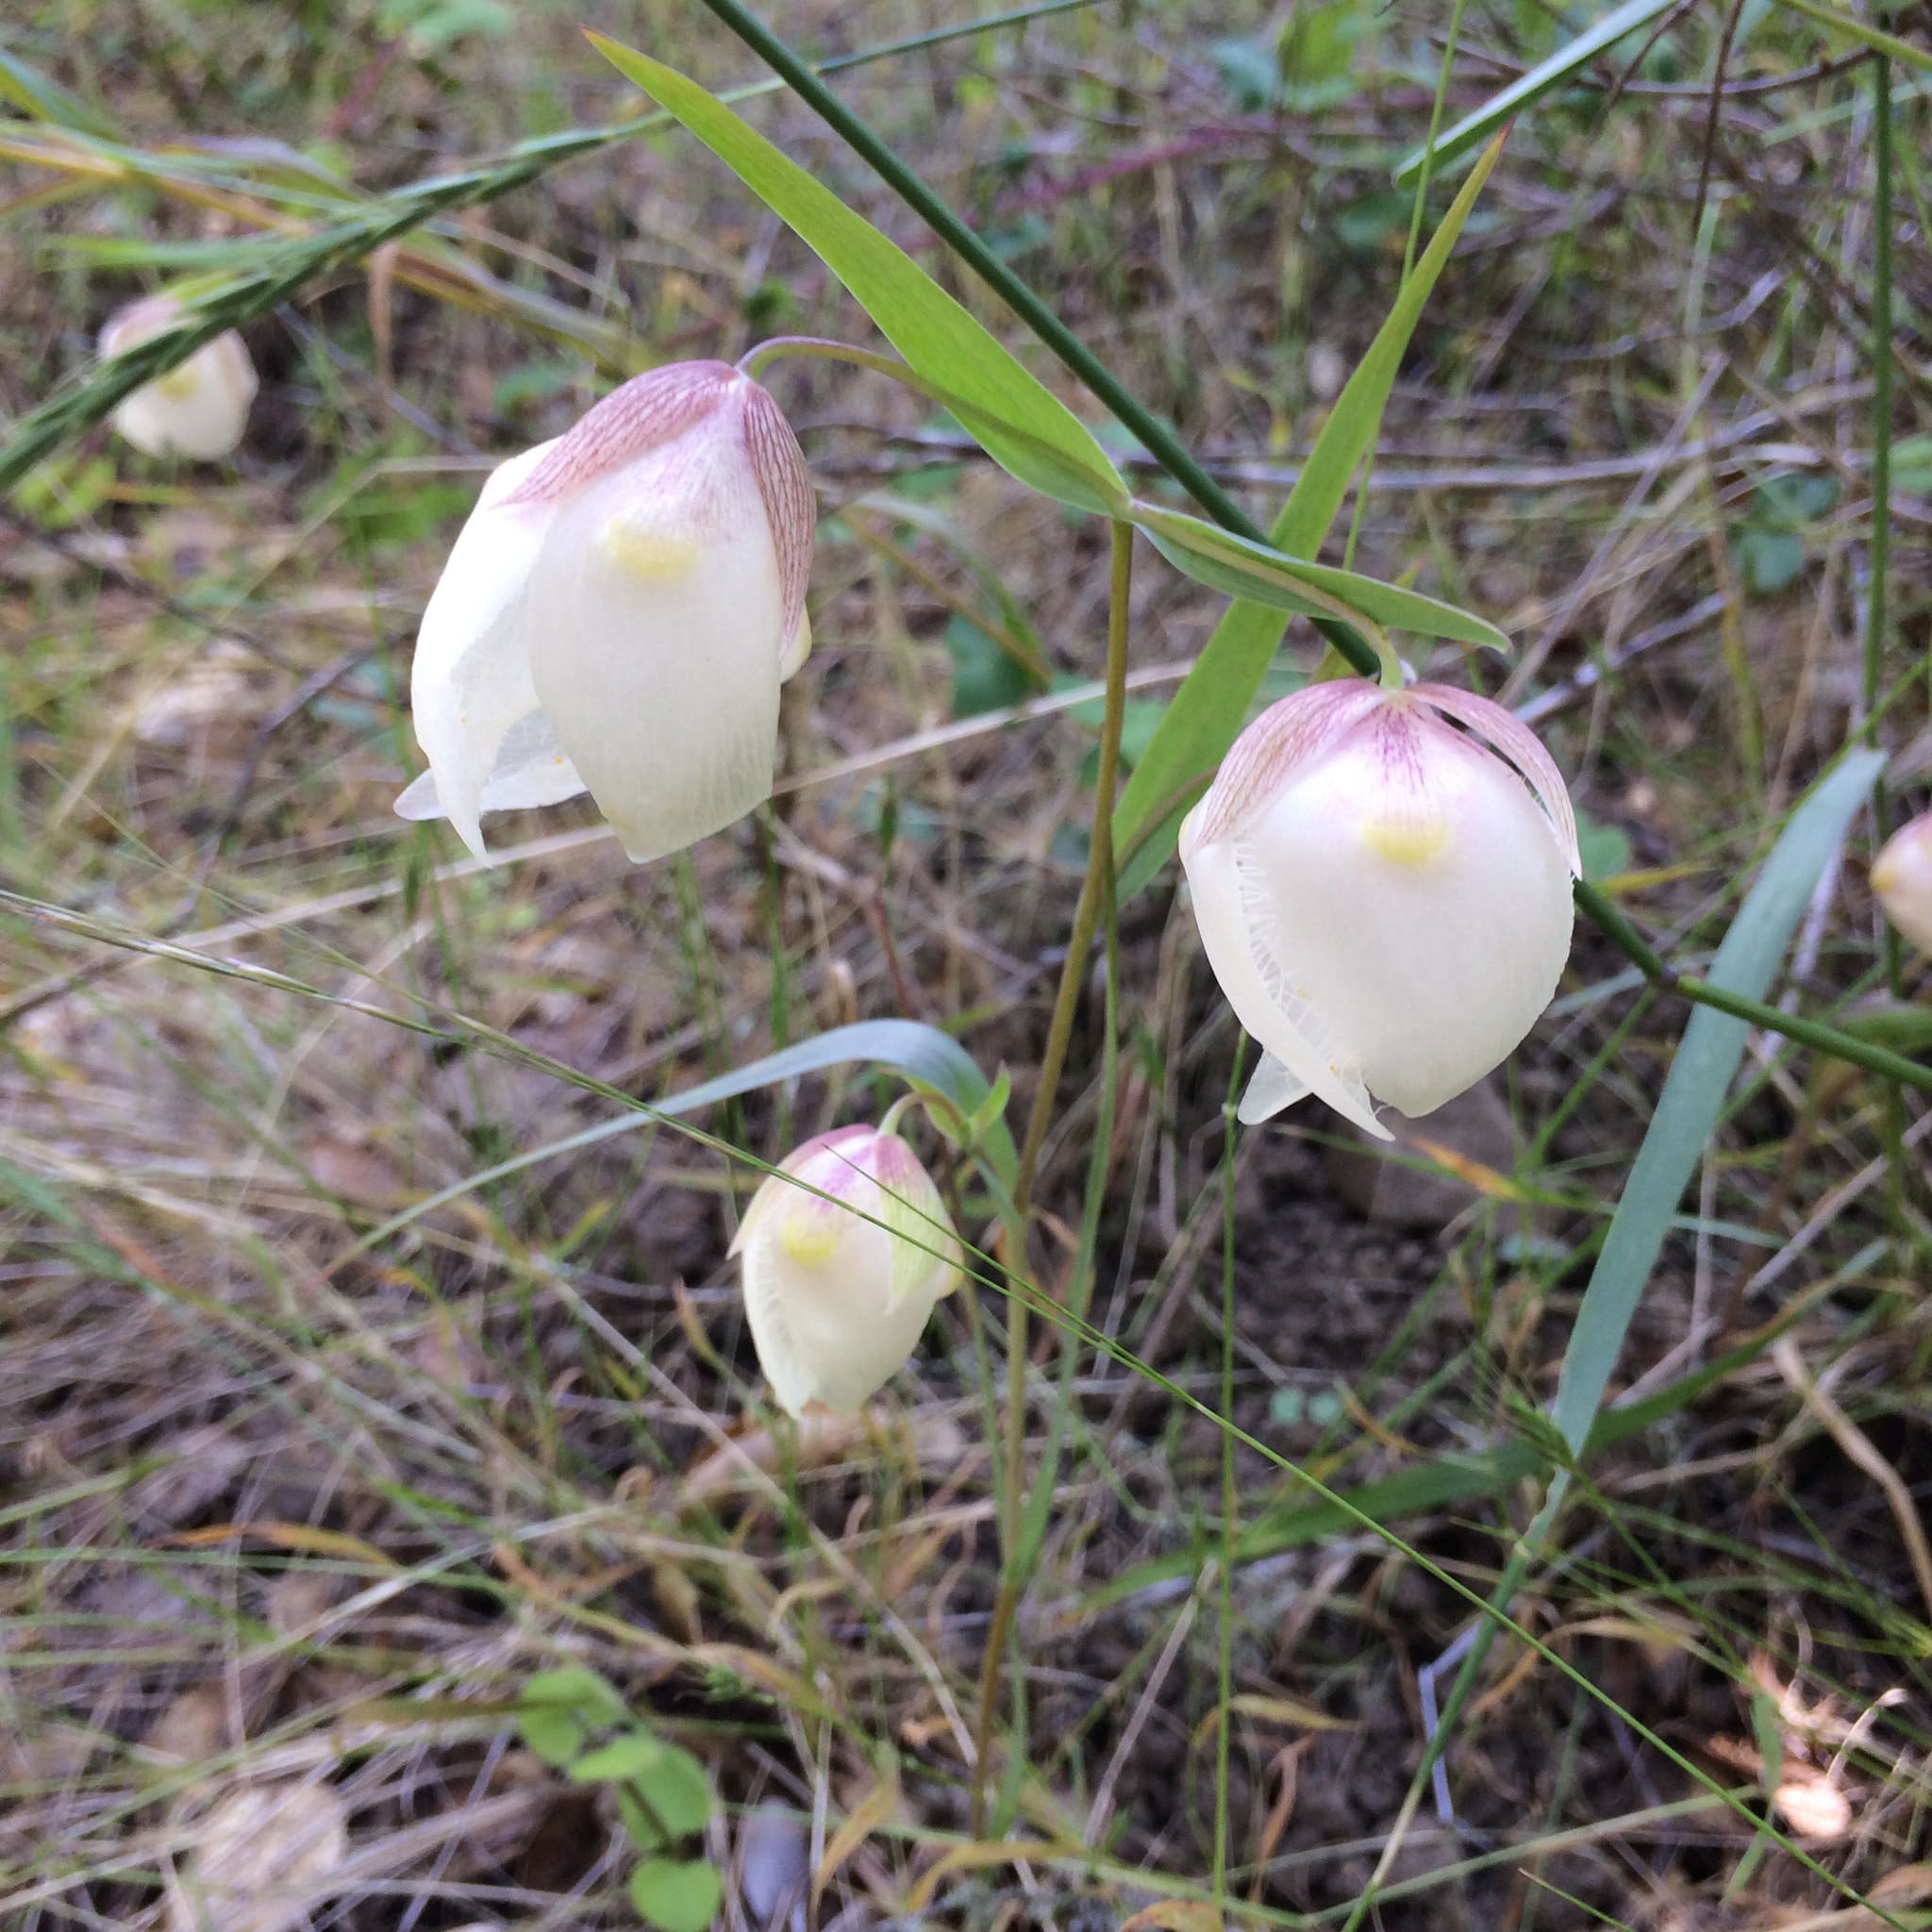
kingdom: Plantae
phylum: Tracheophyta
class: Liliopsida
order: Liliales
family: Liliaceae
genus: Calochortus
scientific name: Calochortus albus
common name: Fairy-lantern
